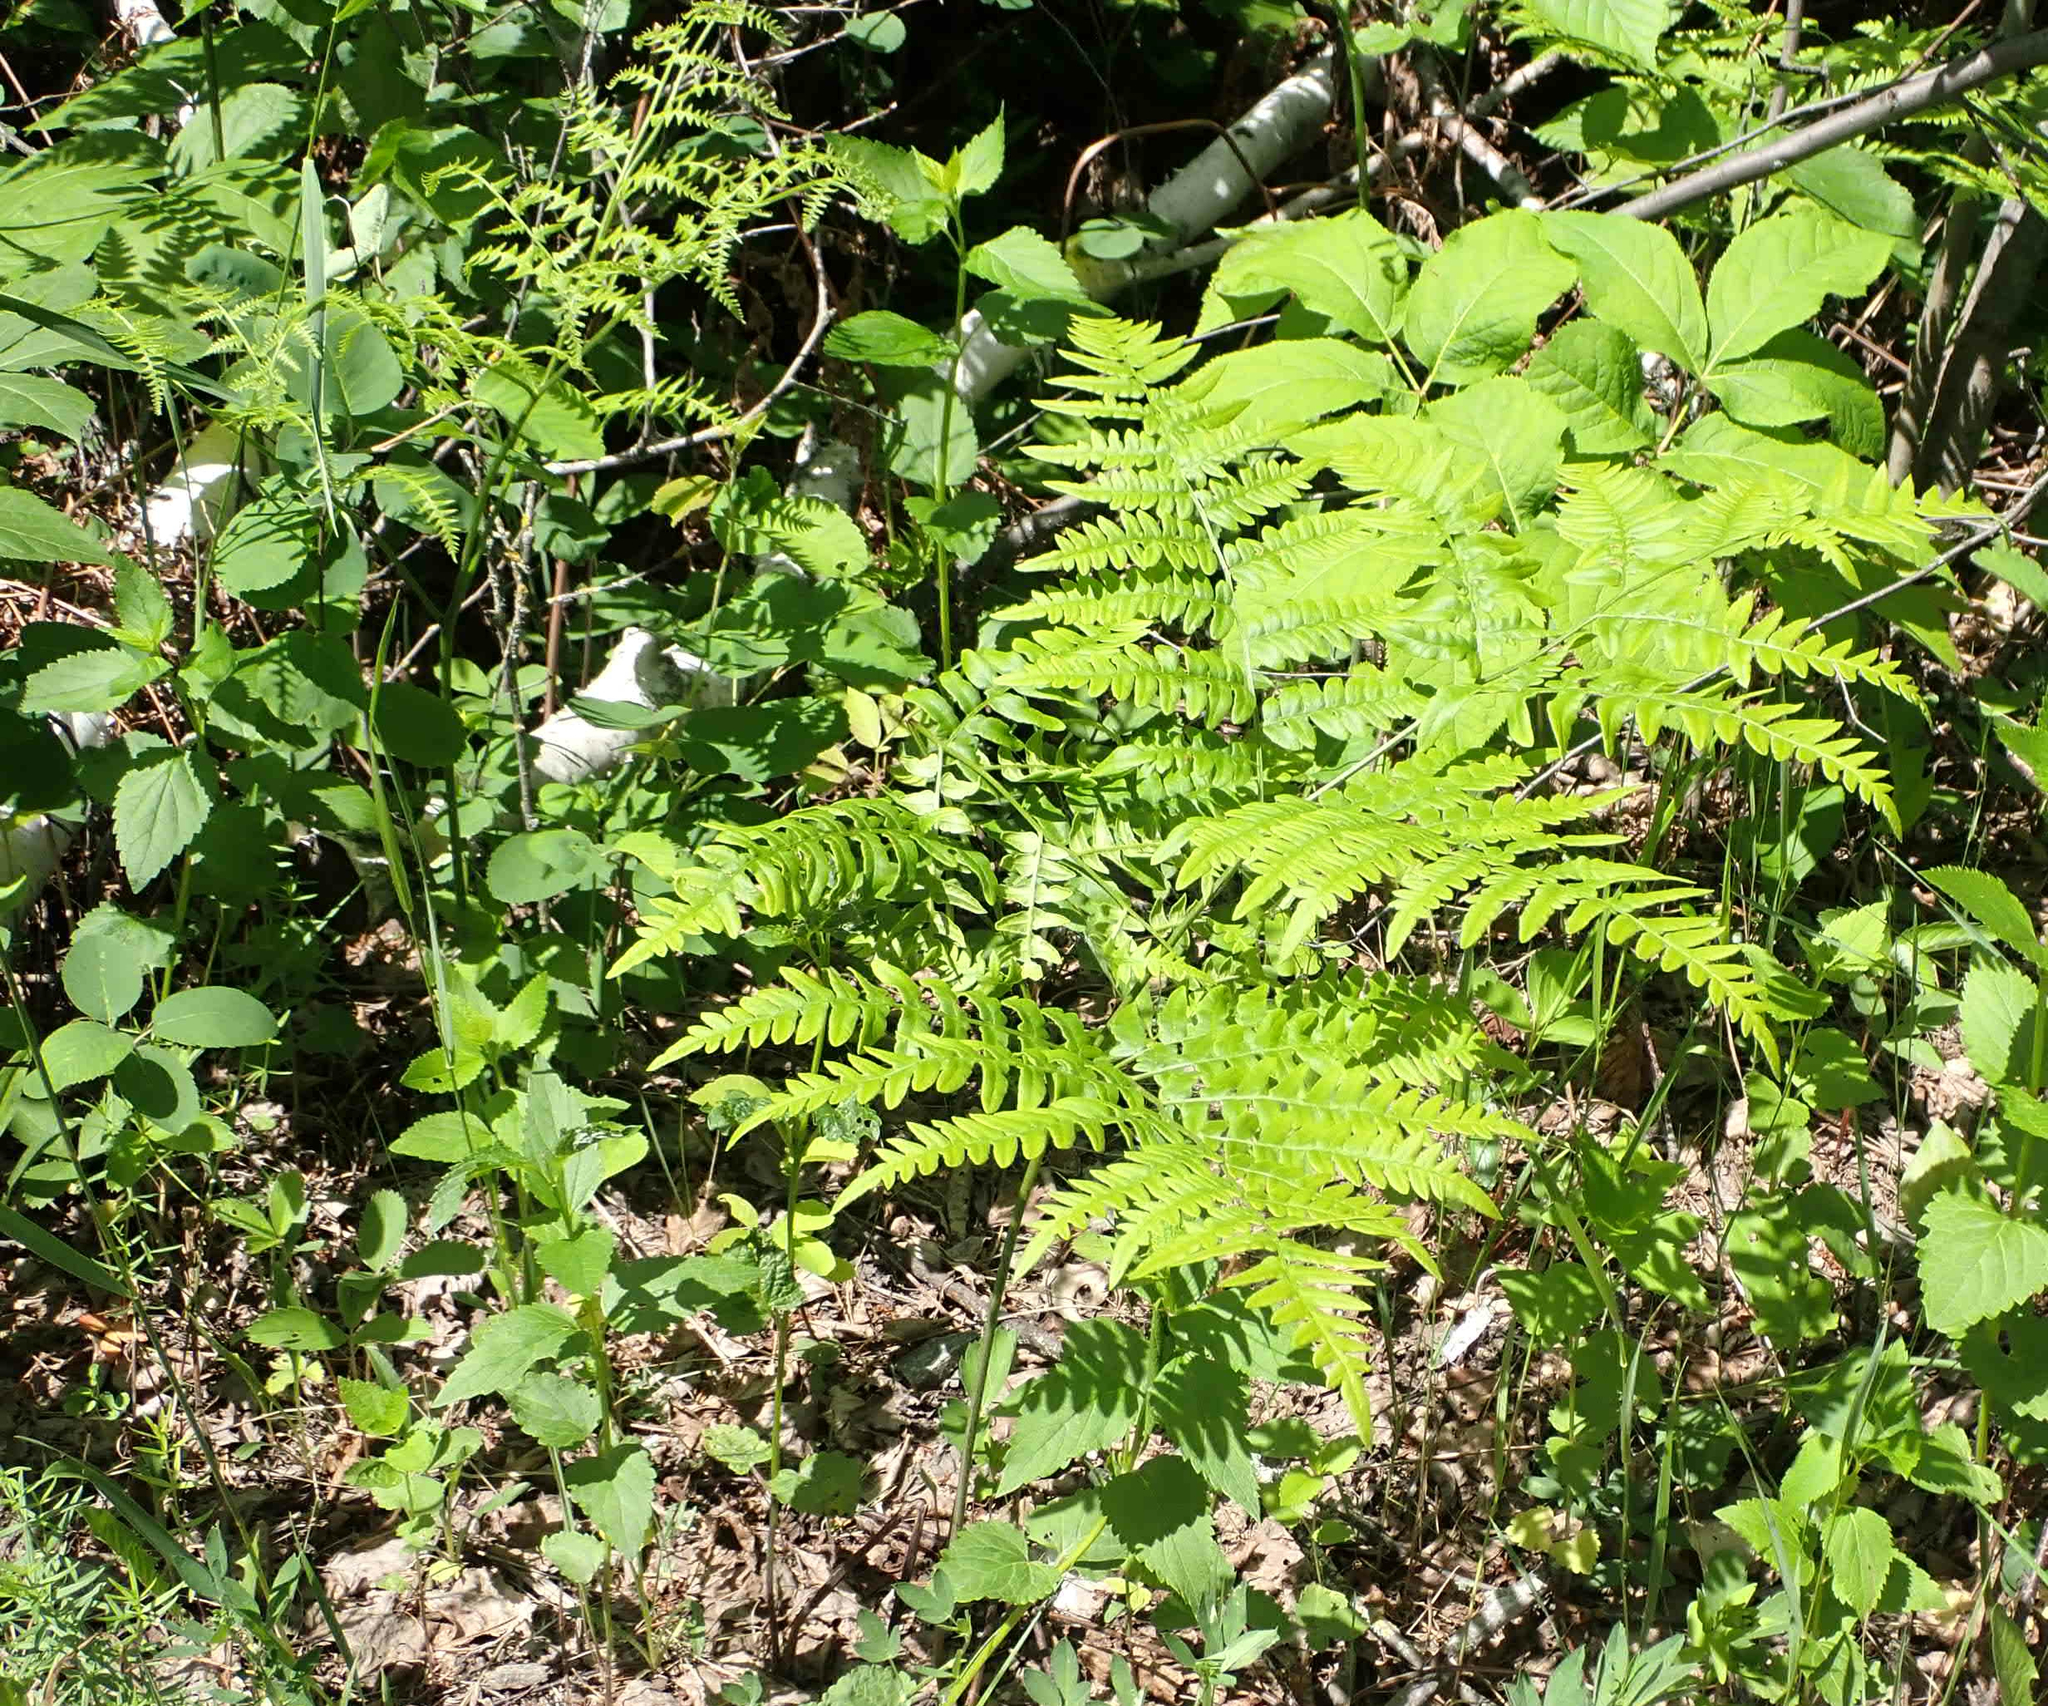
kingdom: Plantae
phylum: Tracheophyta
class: Polypodiopsida
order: Polypodiales
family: Dennstaedtiaceae
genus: Pteridium
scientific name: Pteridium aquilinum
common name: Bracken
